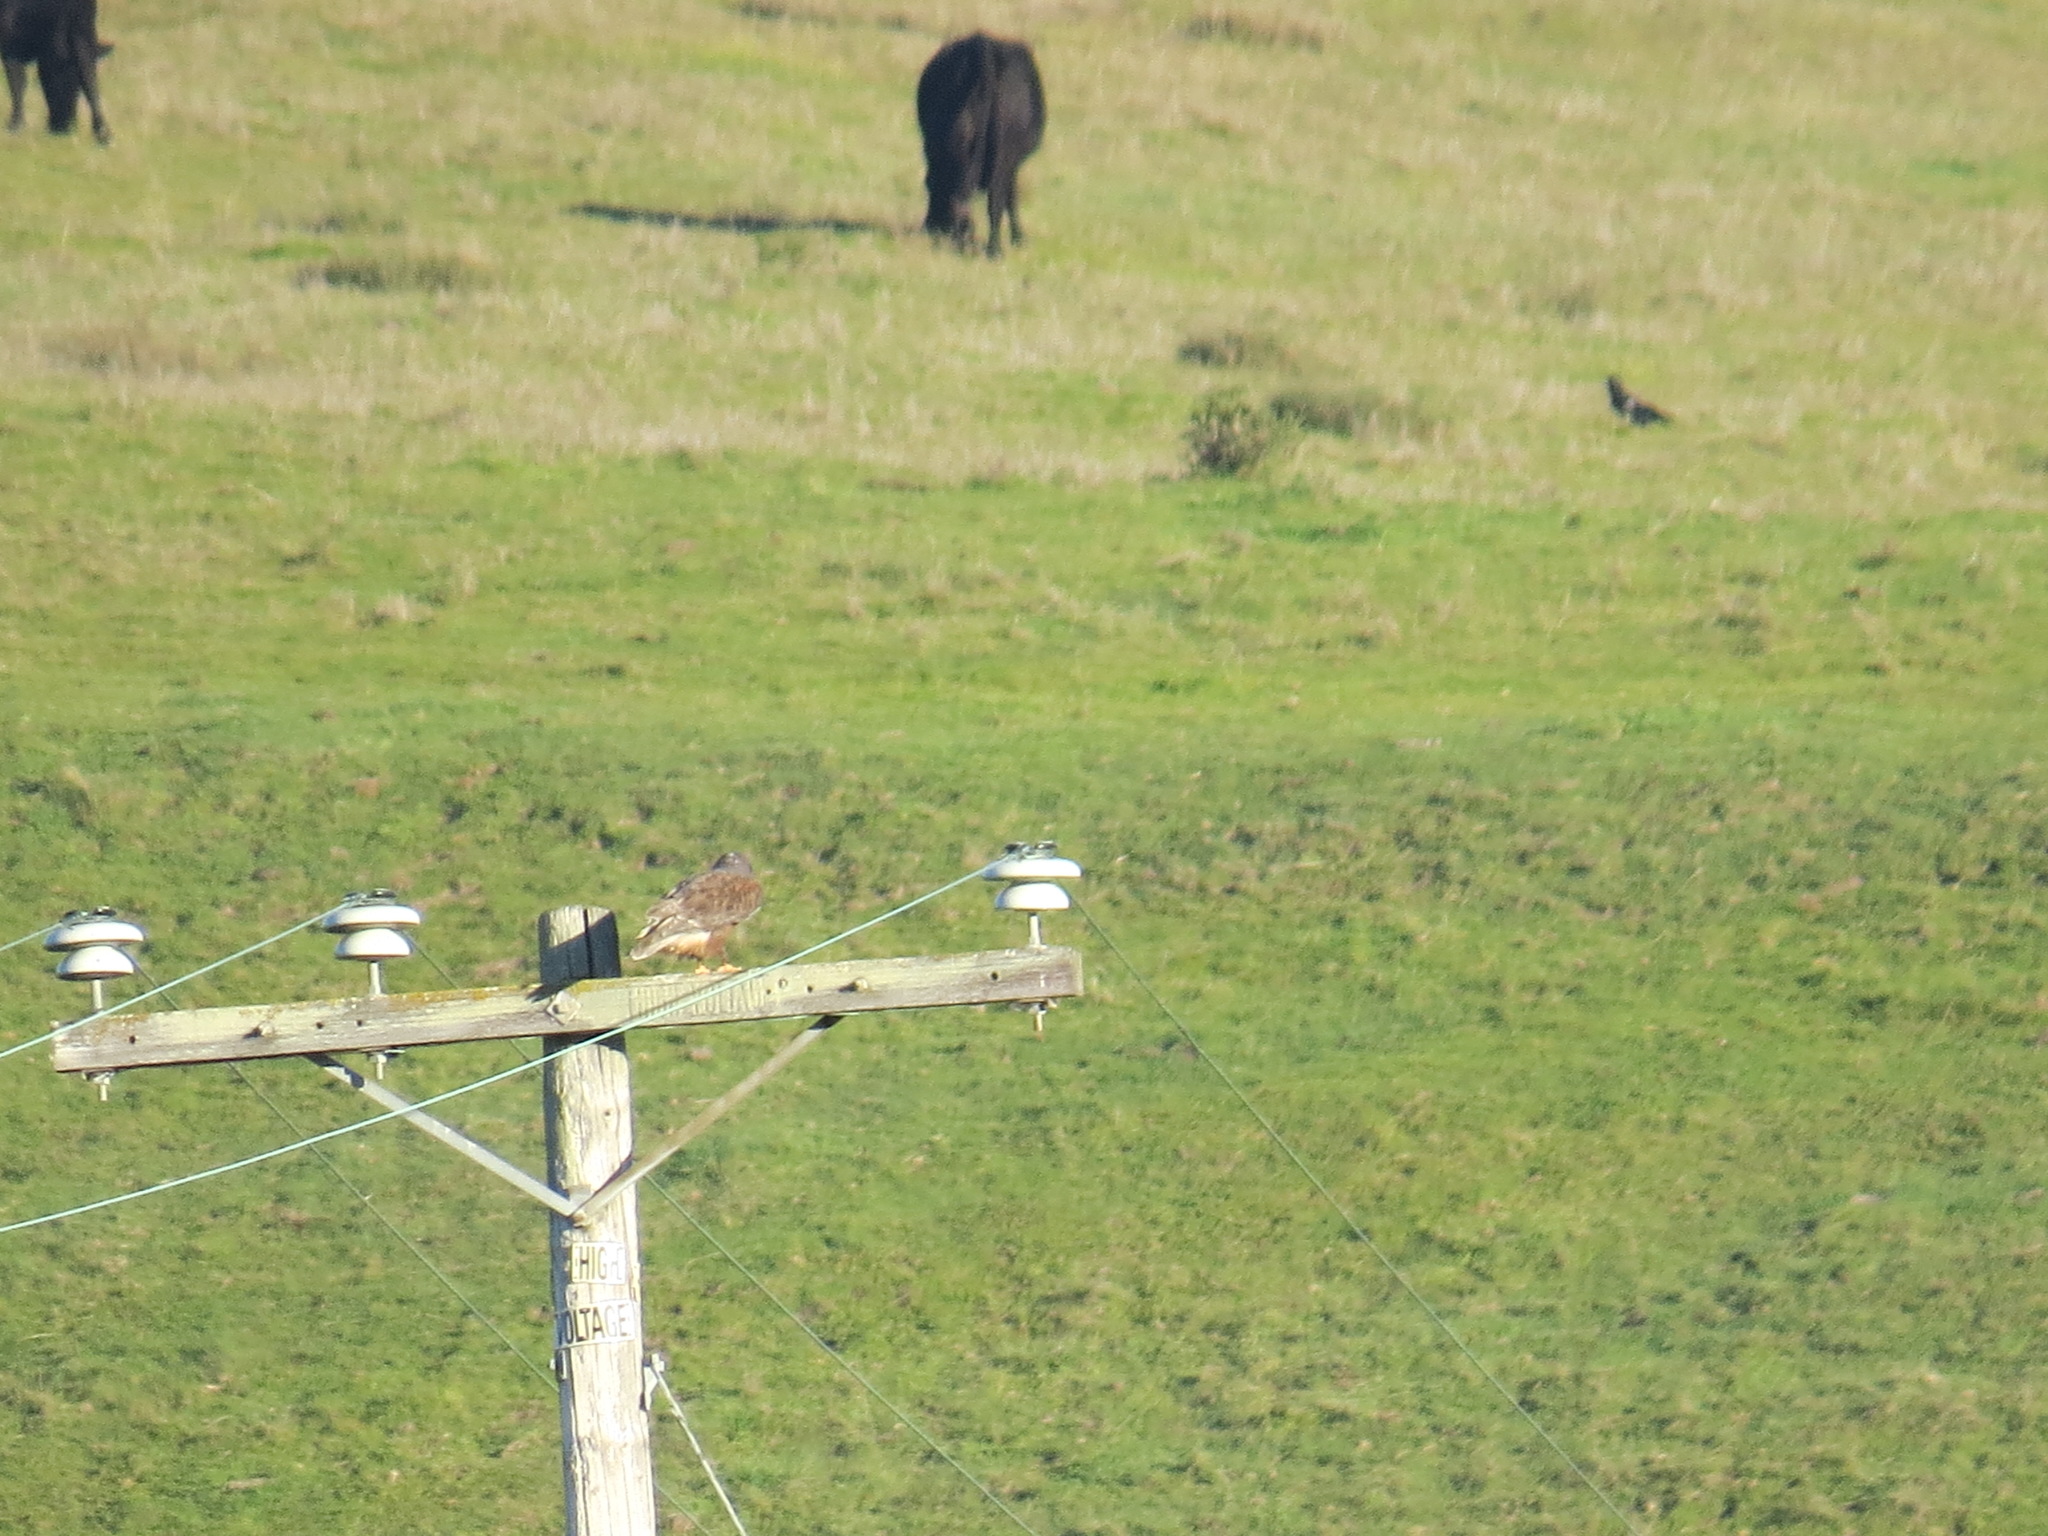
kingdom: Animalia
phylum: Chordata
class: Aves
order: Accipitriformes
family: Accipitridae
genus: Buteo
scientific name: Buteo regalis
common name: Ferruginous hawk
